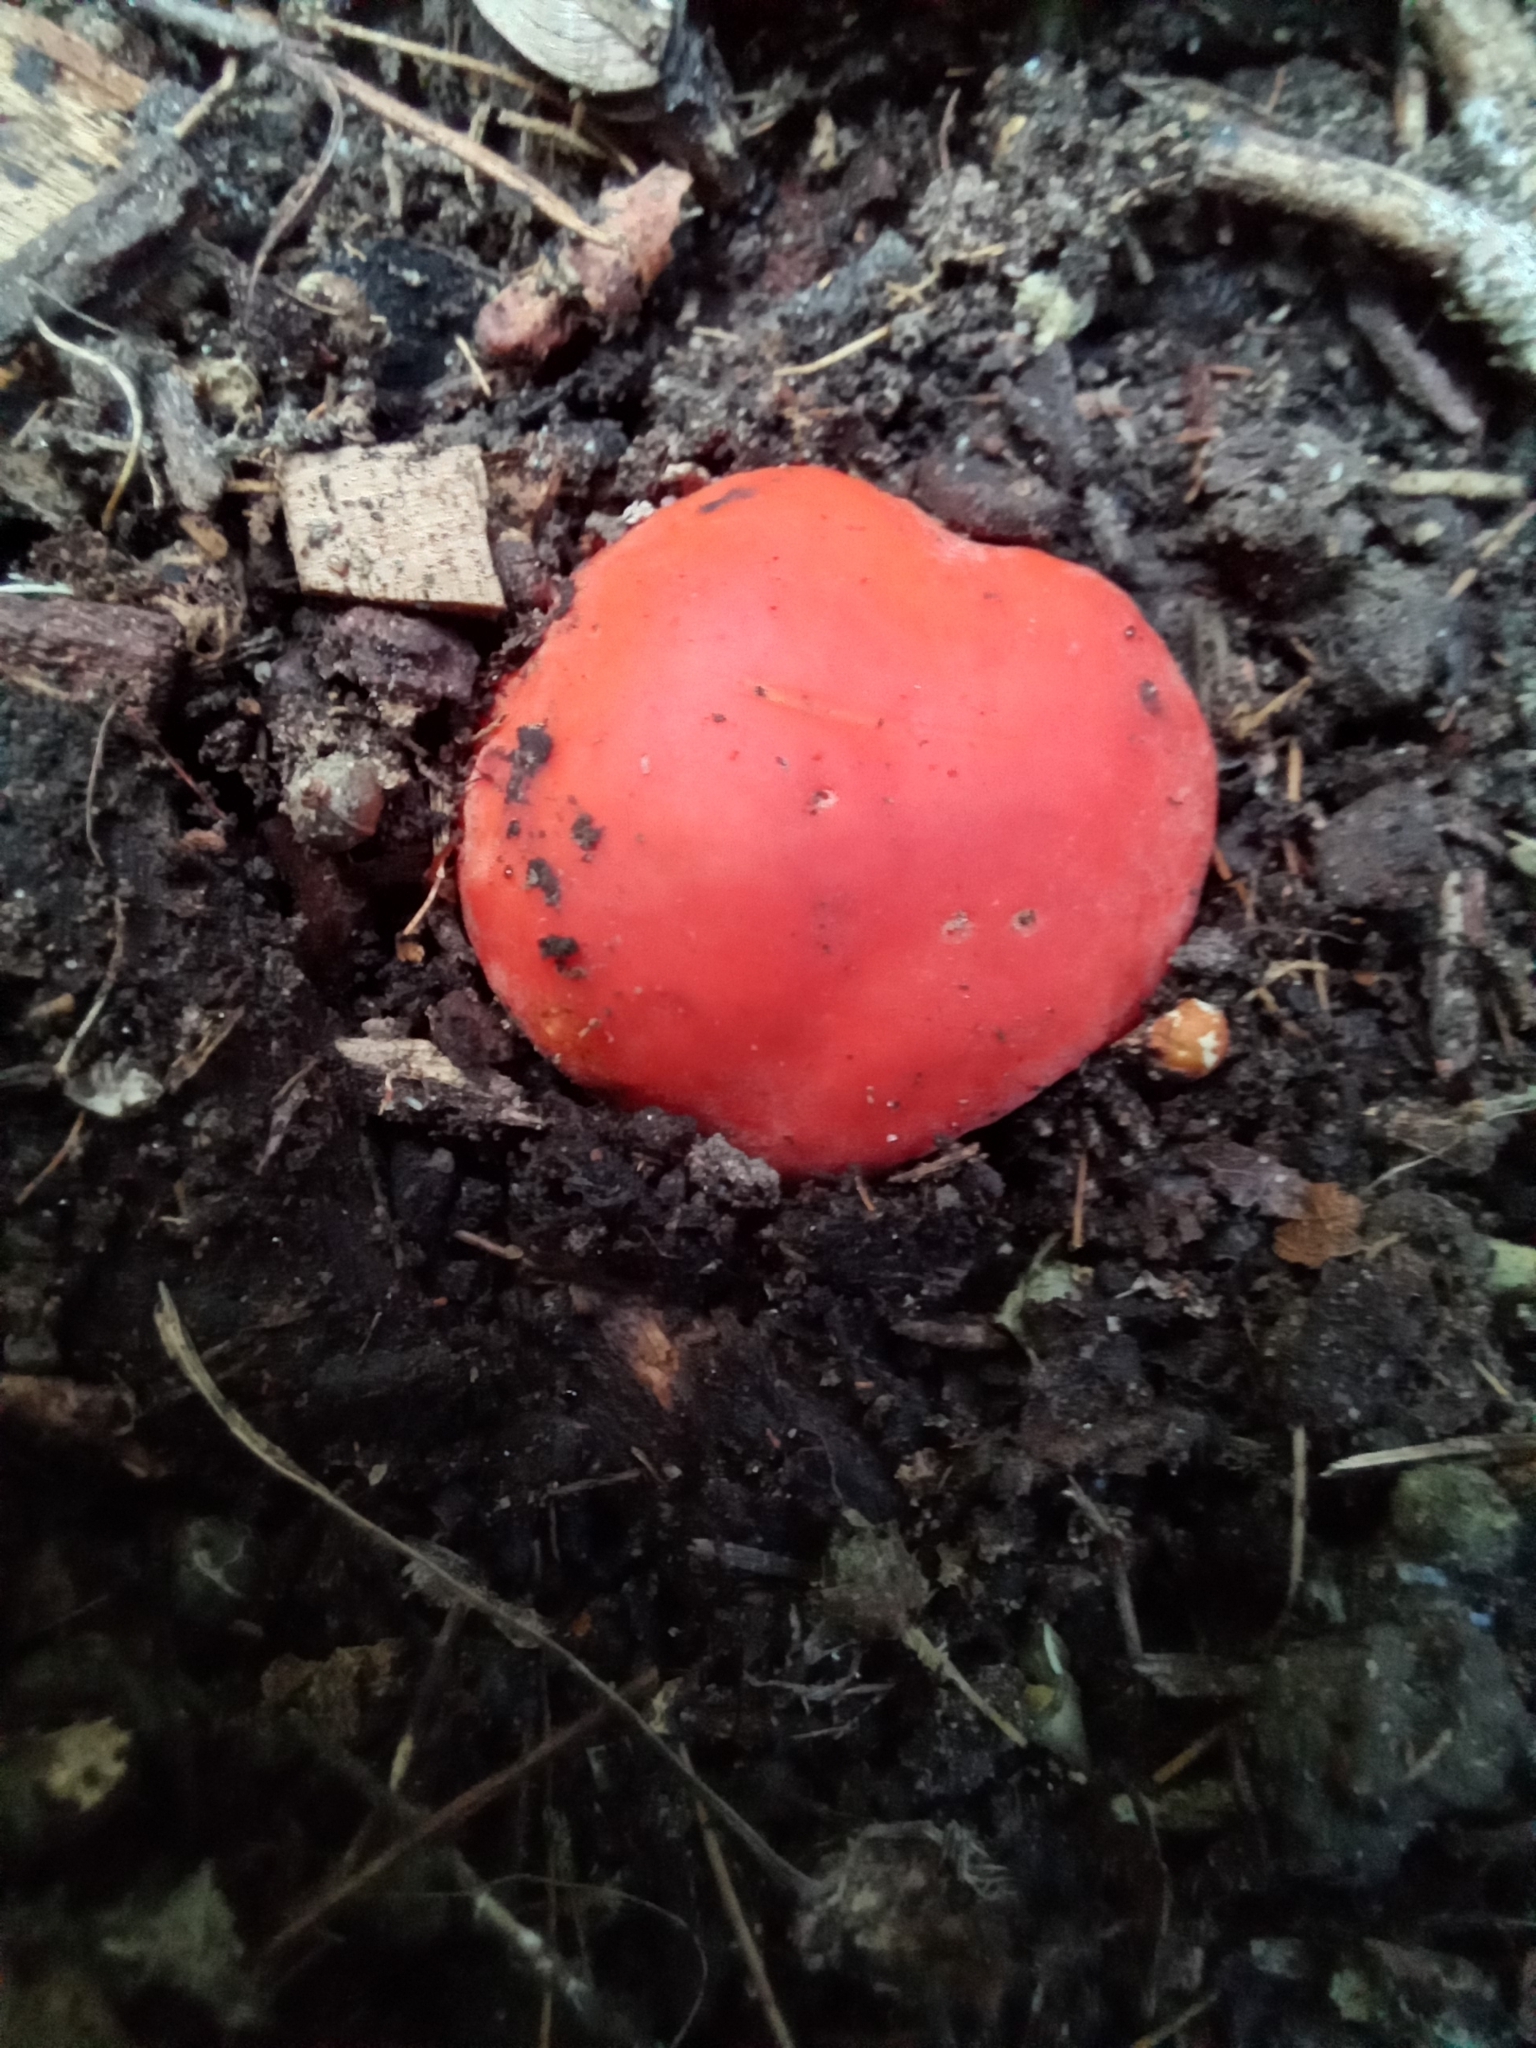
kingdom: Fungi
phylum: Ascomycota
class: Pezizomycetes
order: Pezizales
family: Pyronemataceae
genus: Paurocotylis
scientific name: Paurocotylis pila
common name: Scarlet berry truffle
